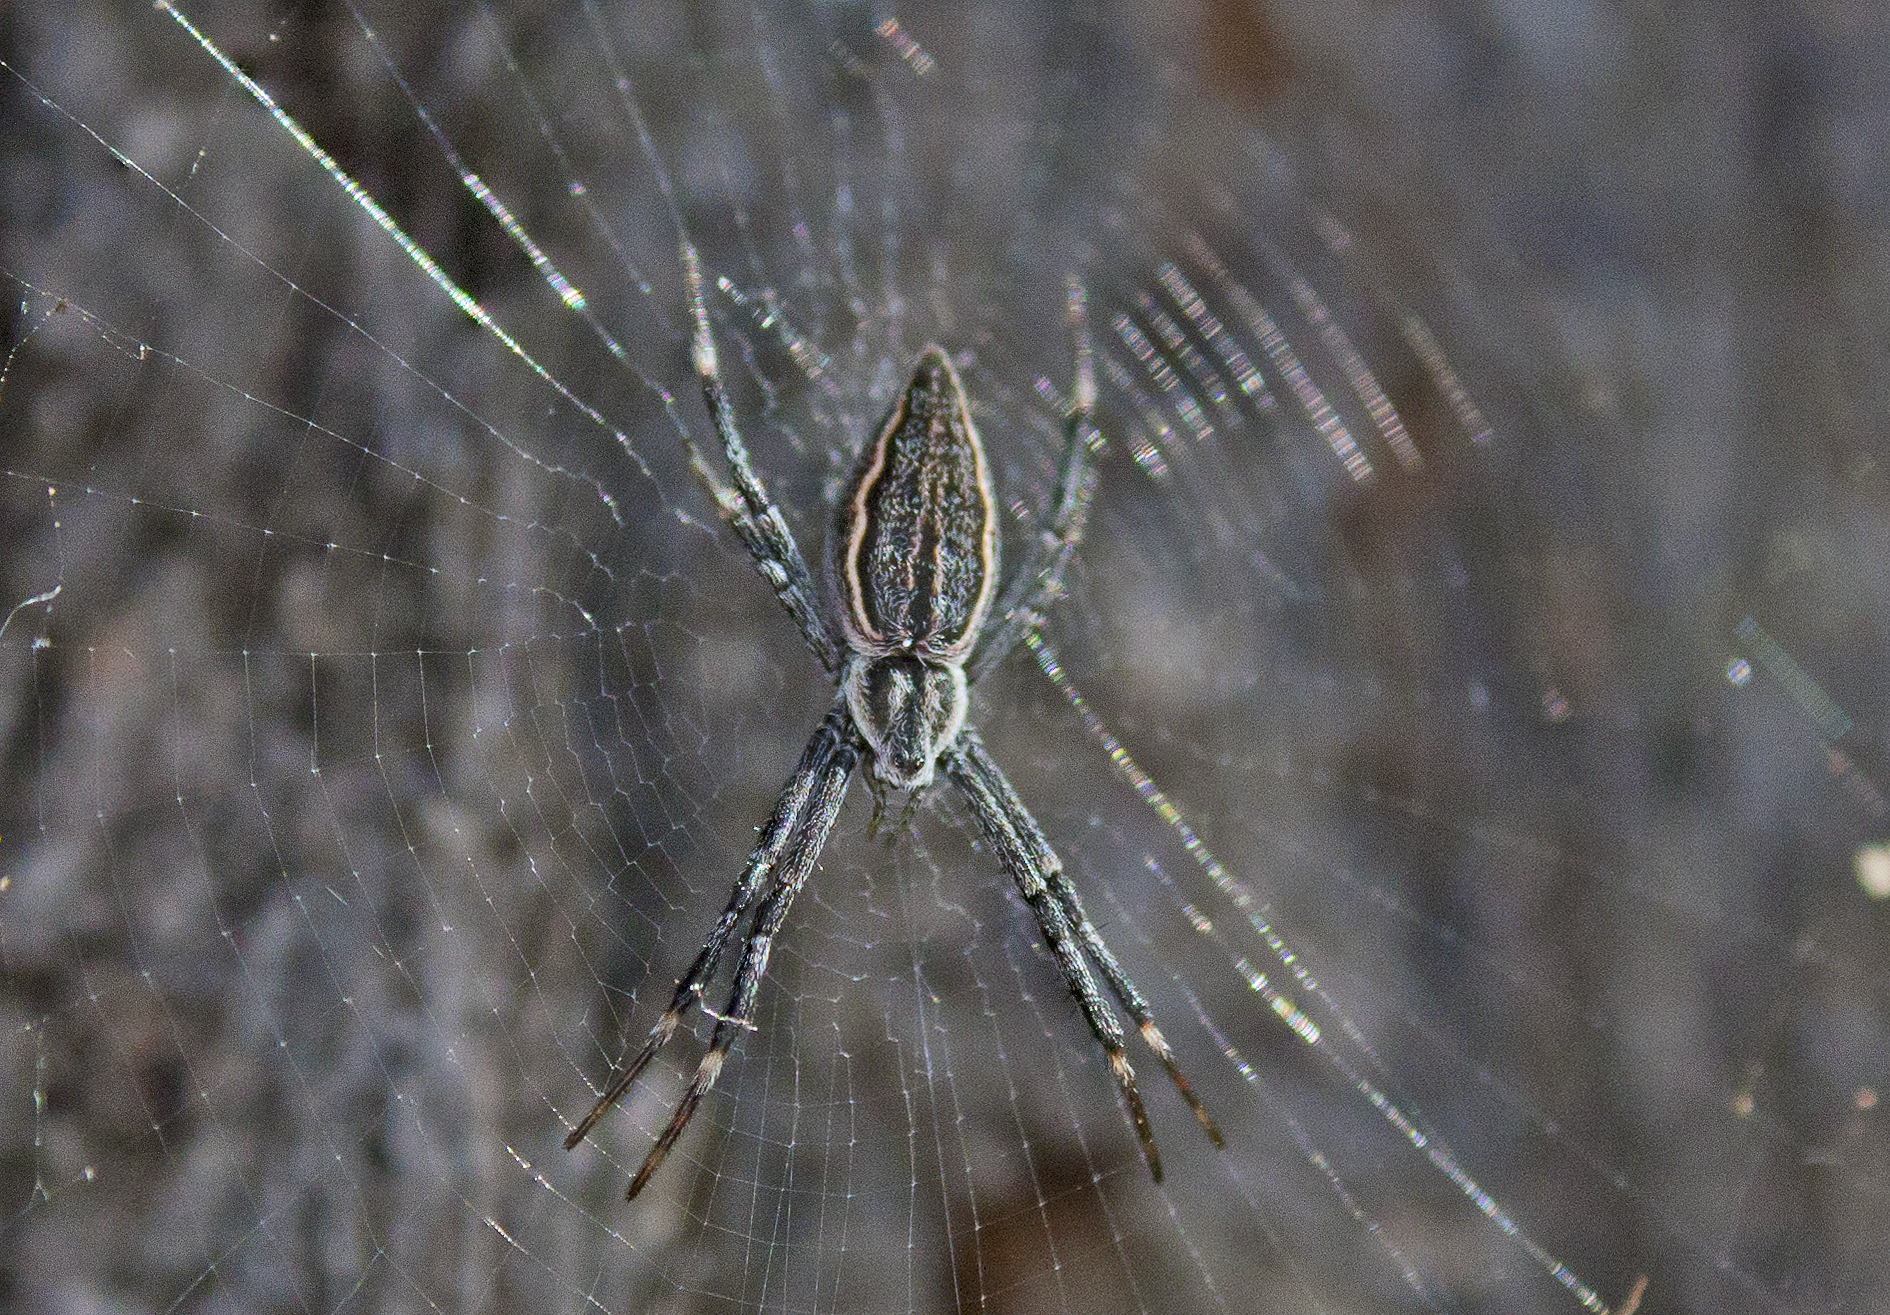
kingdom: Animalia
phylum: Arthropoda
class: Arachnida
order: Araneae
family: Araneidae
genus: Argiope
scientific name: Argiope ocyaloides
